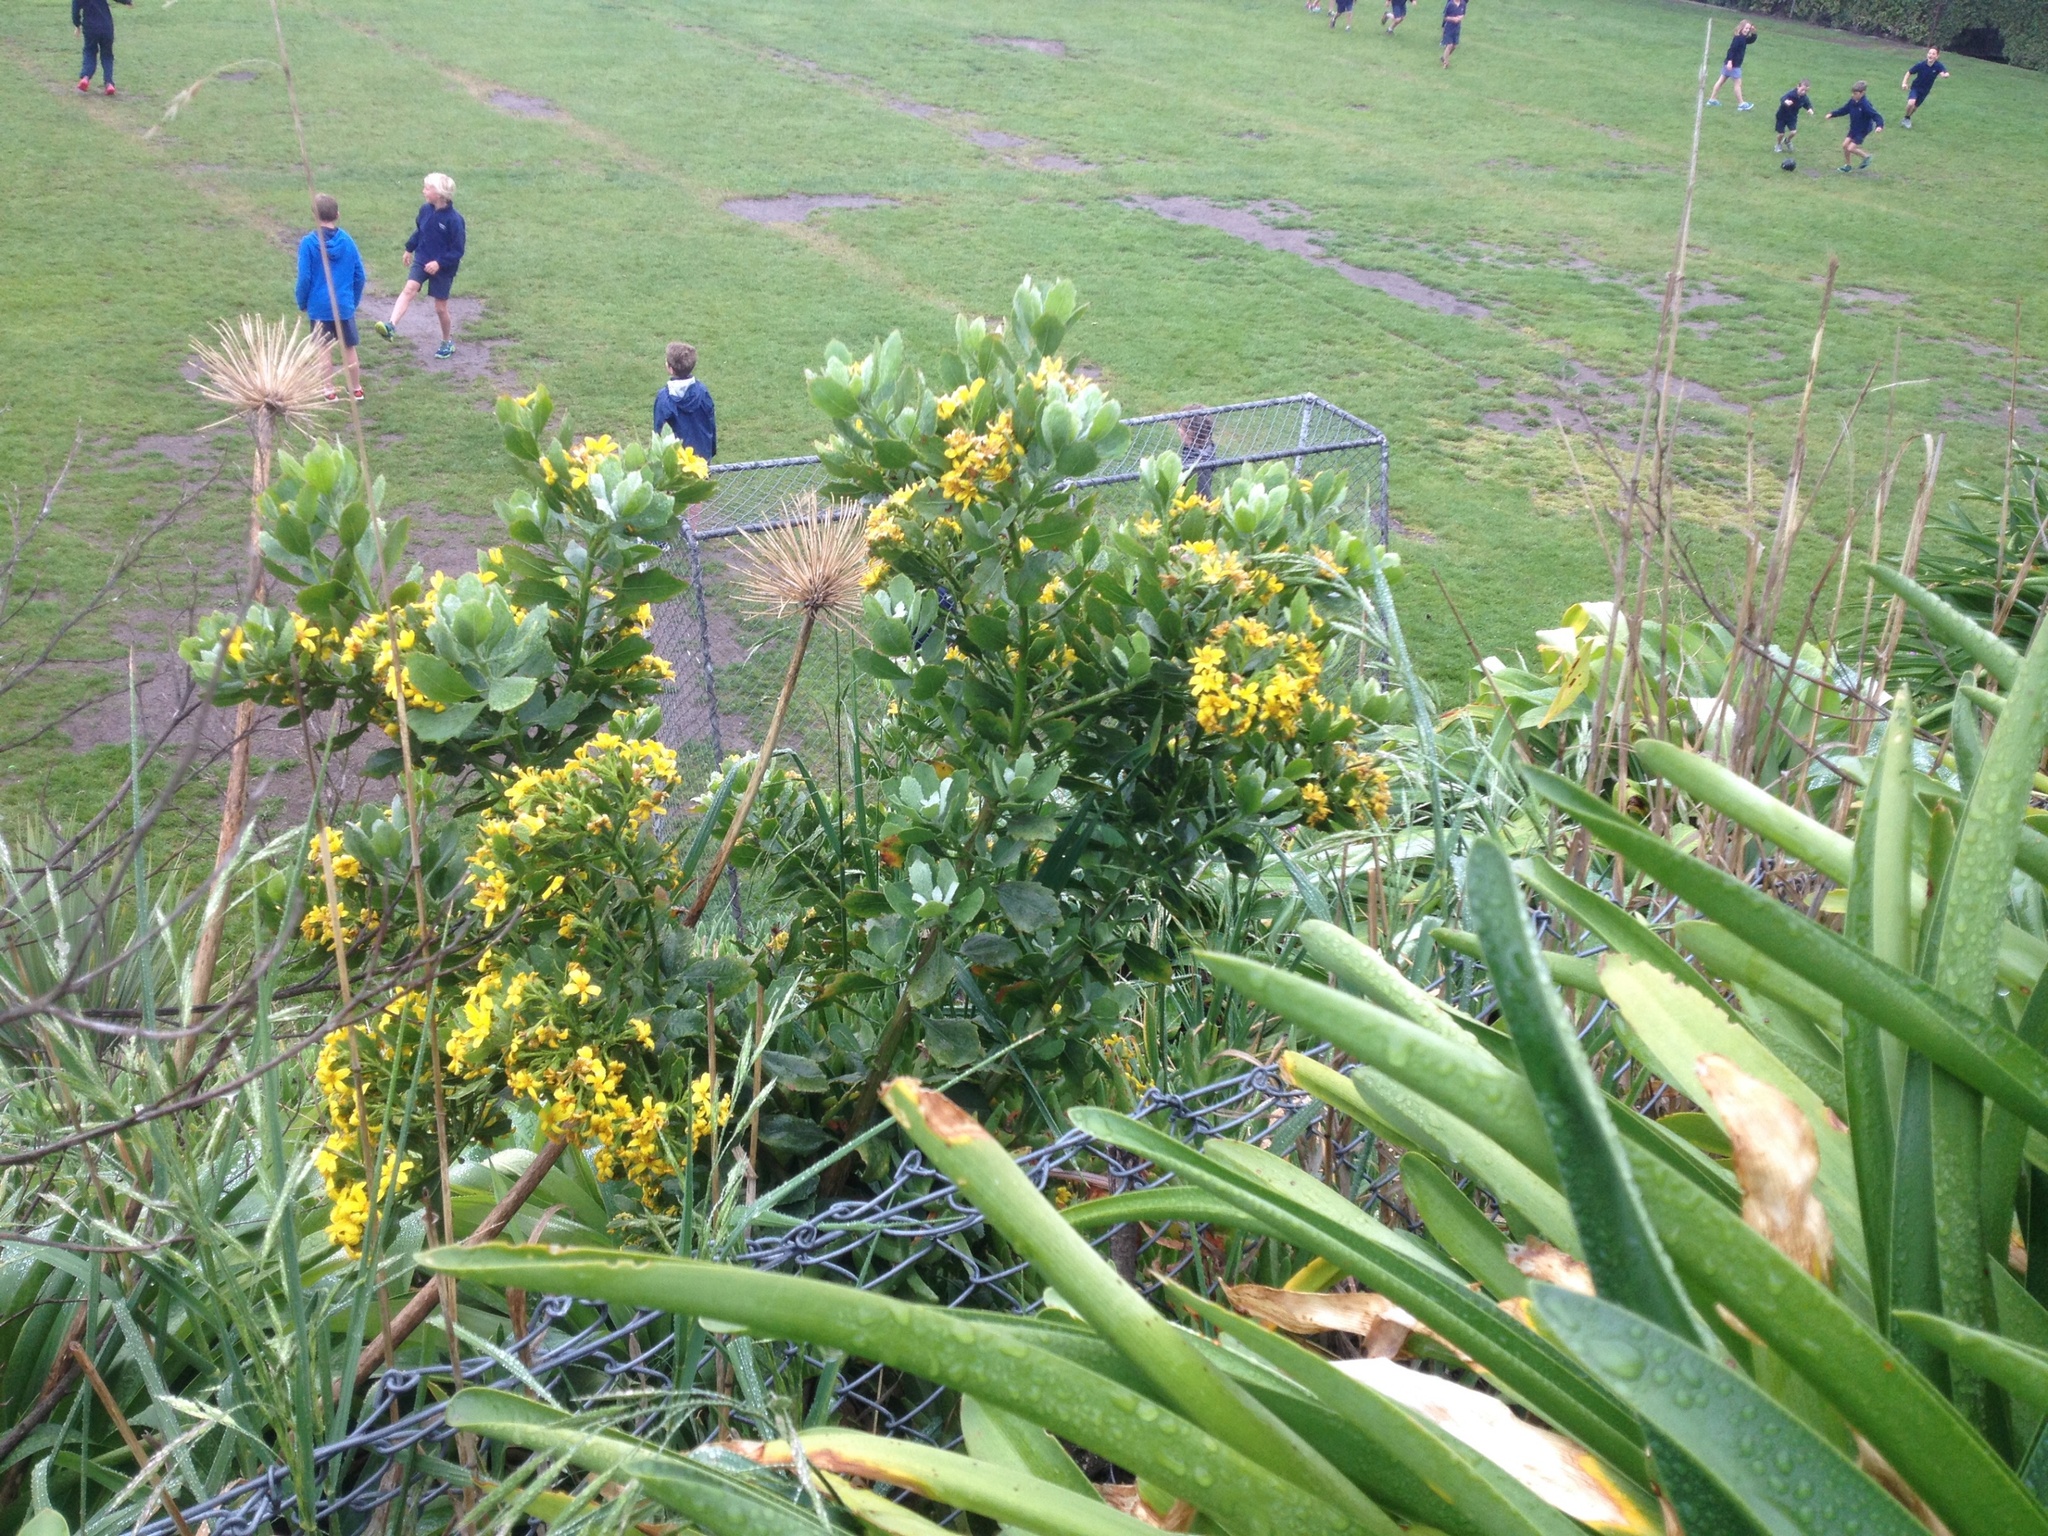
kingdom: Plantae
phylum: Tracheophyta
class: Magnoliopsida
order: Asterales
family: Asteraceae
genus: Osteospermum
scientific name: Osteospermum moniliferum
